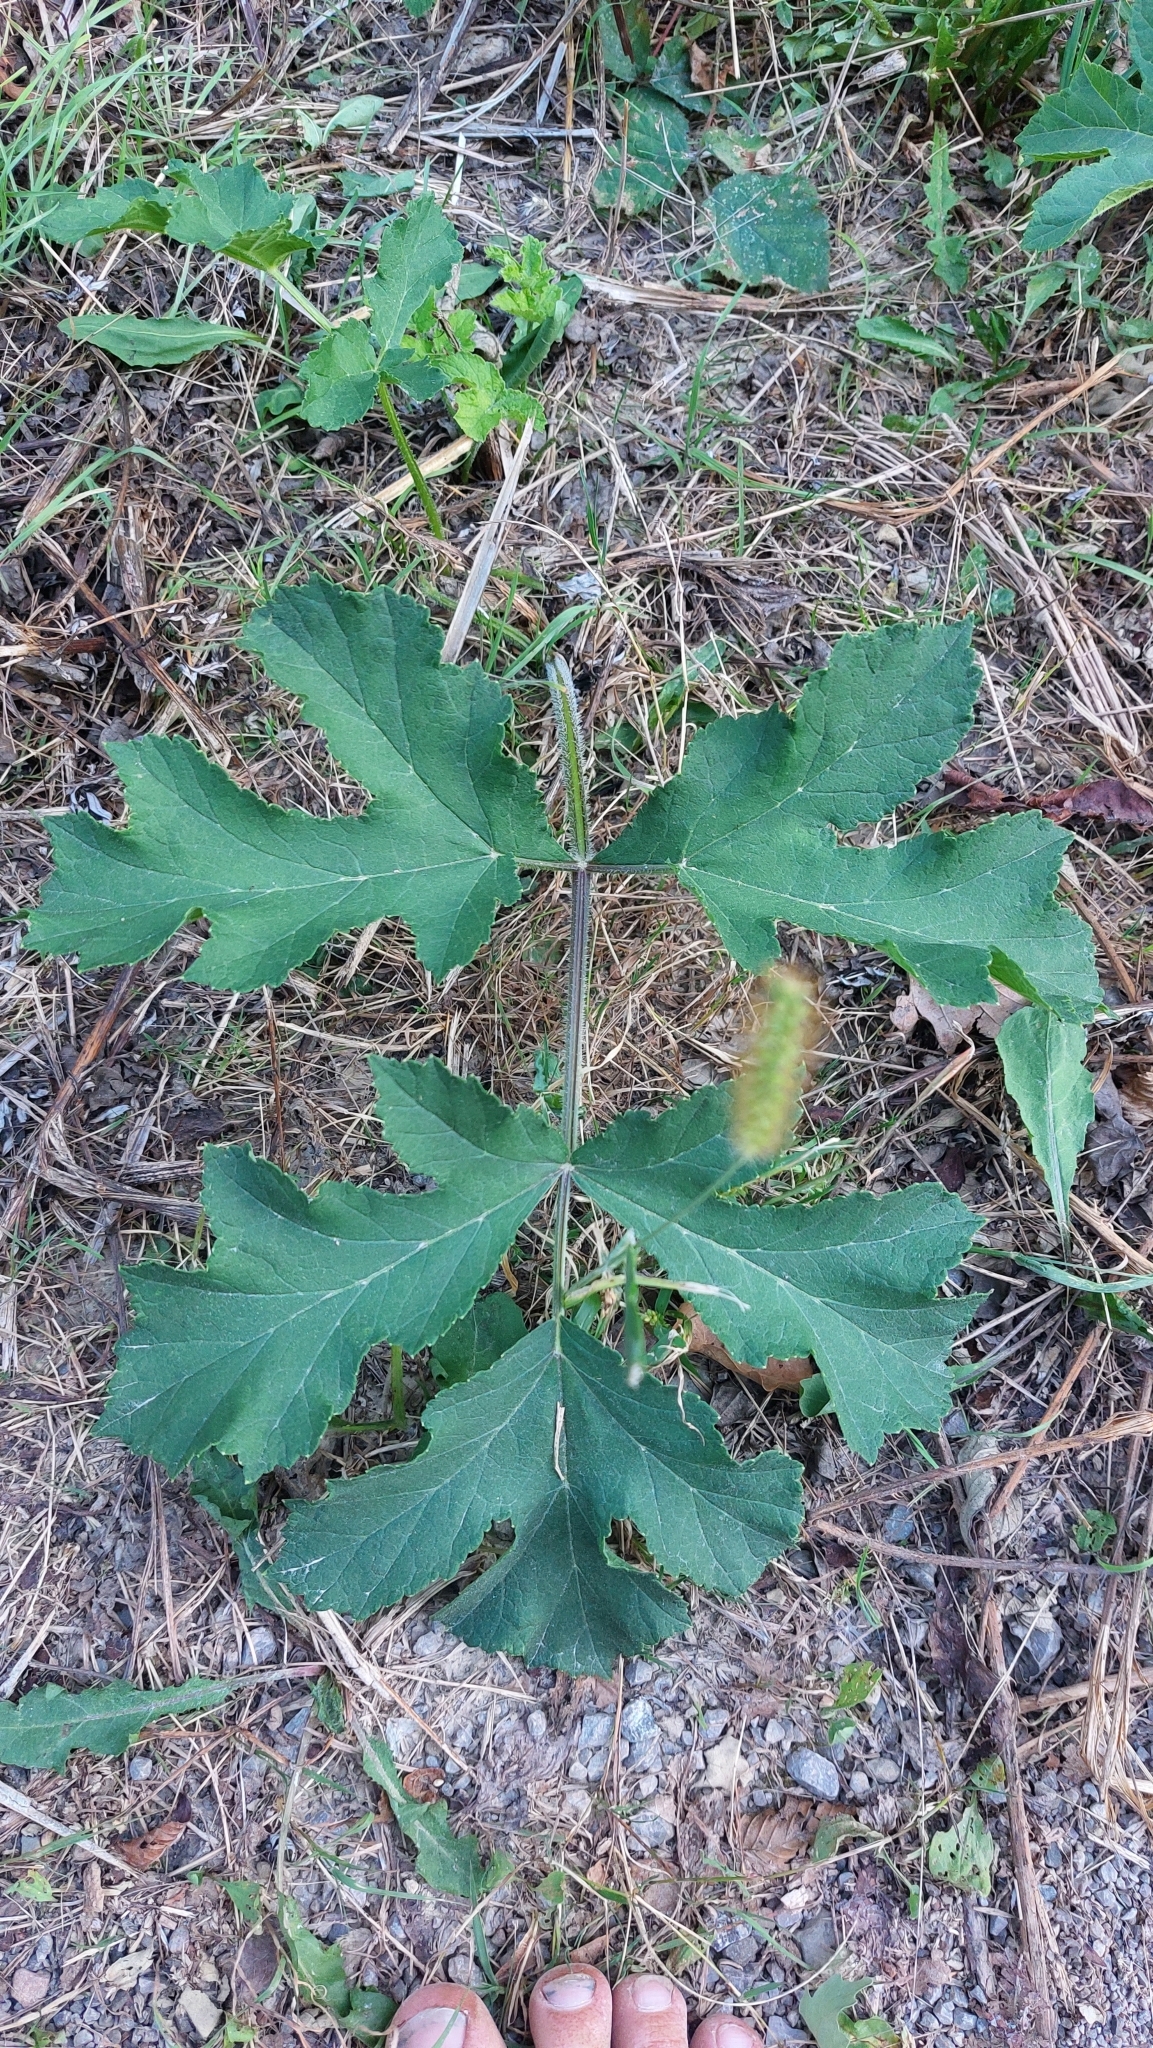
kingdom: Plantae
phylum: Tracheophyta
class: Magnoliopsida
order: Apiales
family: Apiaceae
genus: Heracleum
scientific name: Heracleum sphondylium
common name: Hogweed
